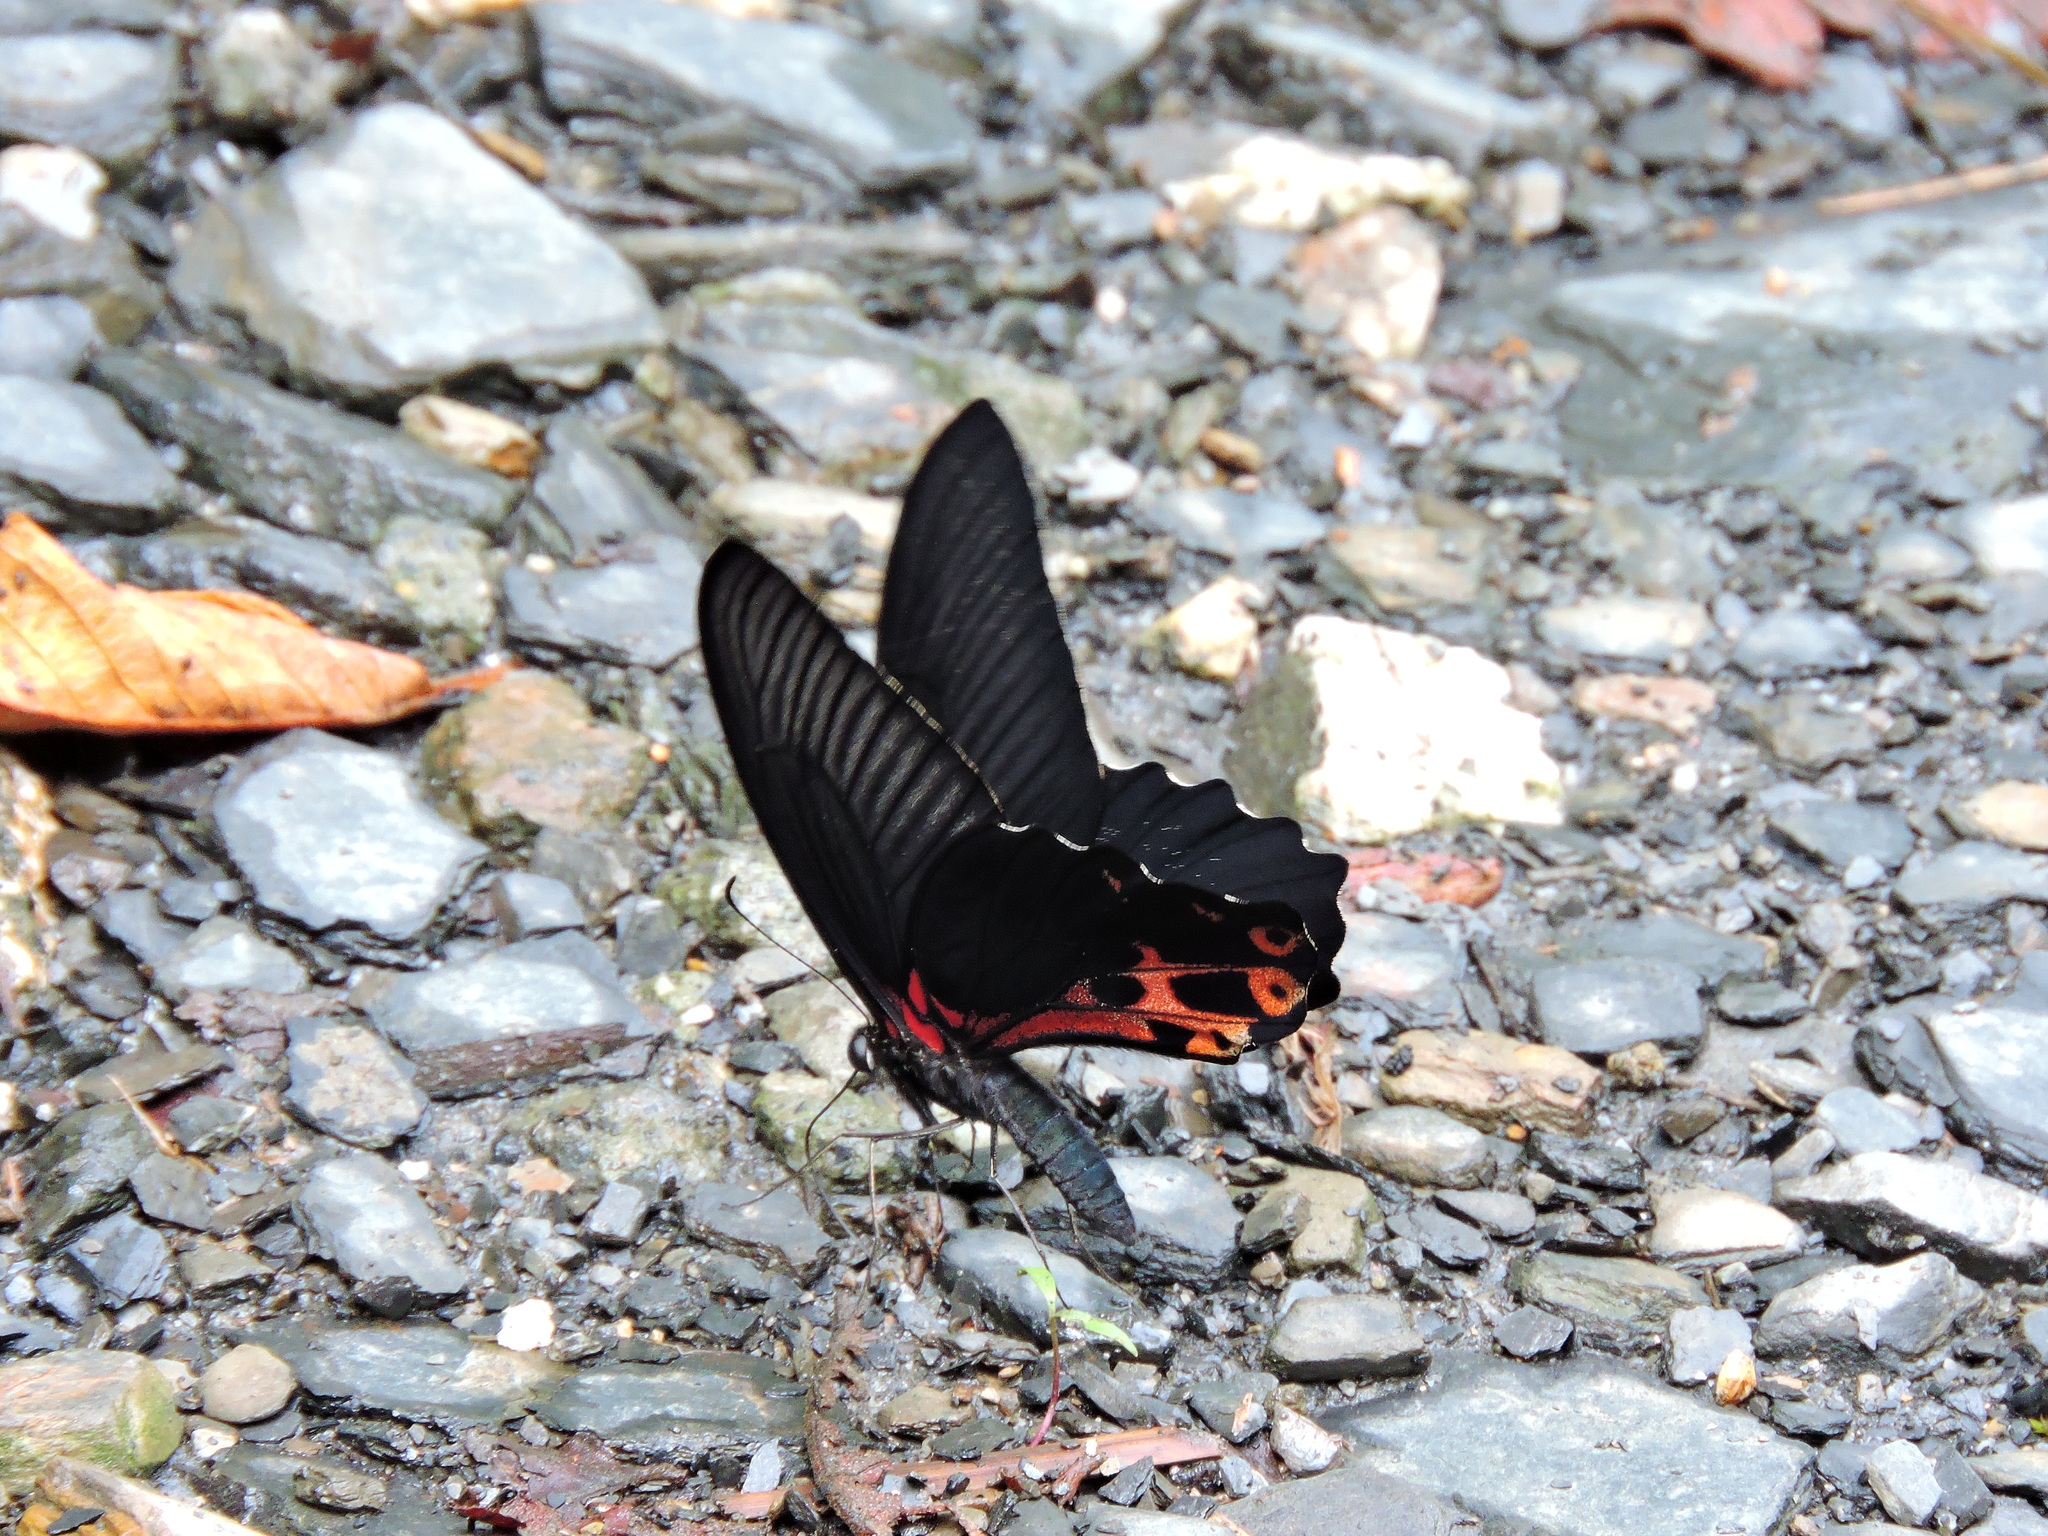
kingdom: Animalia
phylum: Arthropoda
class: Insecta
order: Lepidoptera
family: Papilionidae
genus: Papilio
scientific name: Papilio thaiwanus
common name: Formosan swallowtail
